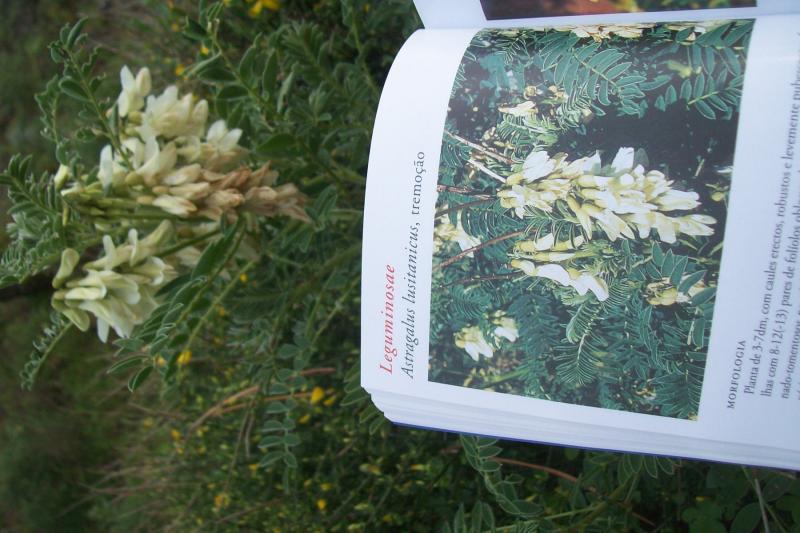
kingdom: Plantae
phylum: Tracheophyta
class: Magnoliopsida
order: Fabales
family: Fabaceae
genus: Erophaca
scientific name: Erophaca baetica
